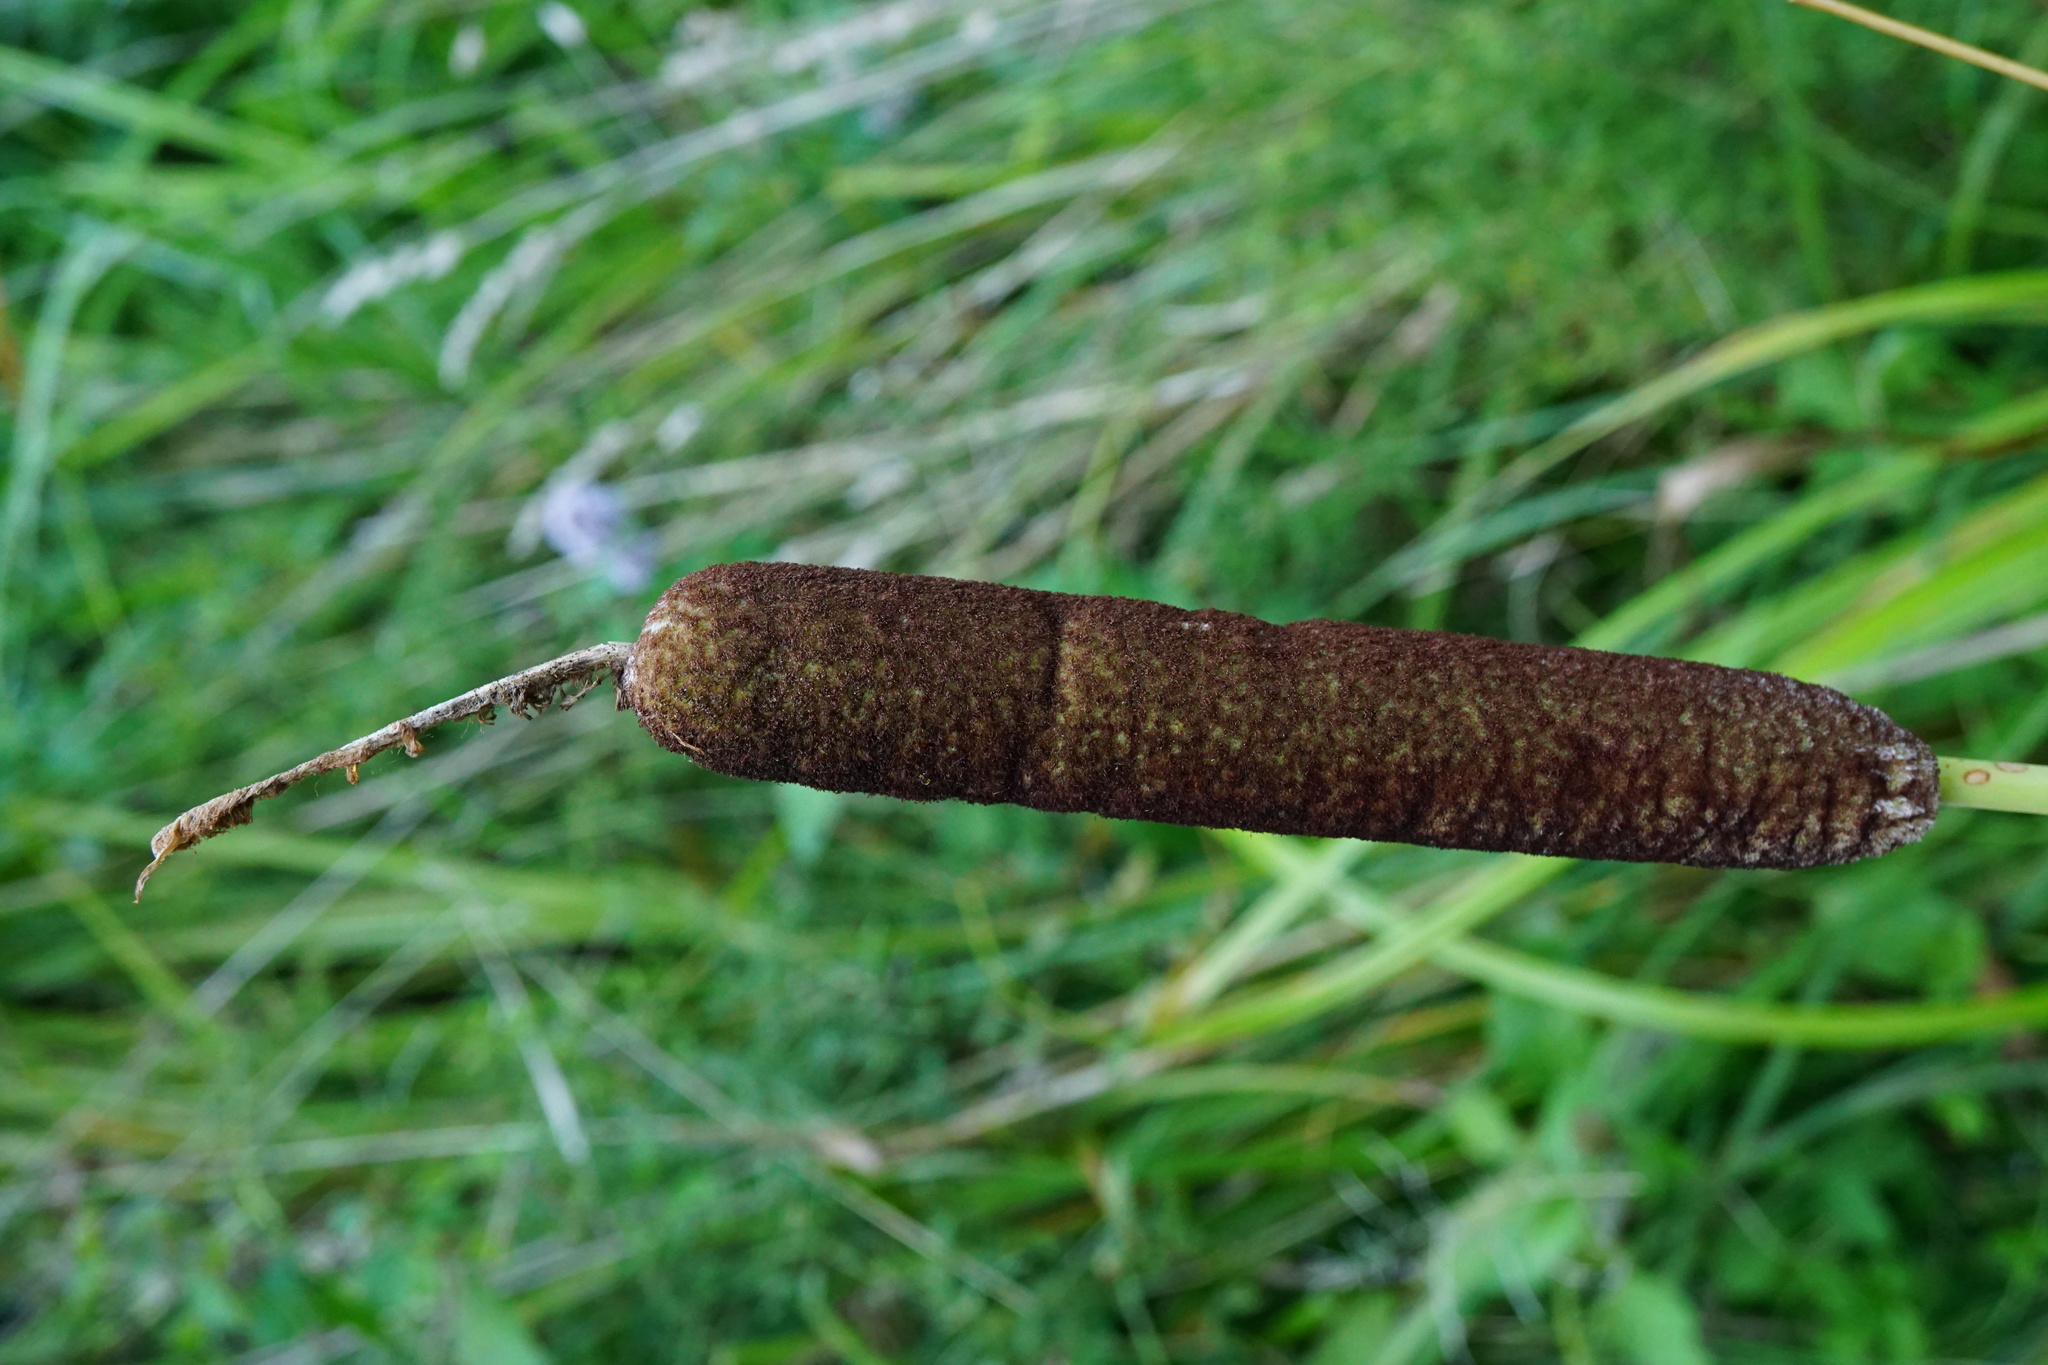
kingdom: Plantae
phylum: Tracheophyta
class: Liliopsida
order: Poales
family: Typhaceae
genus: Typha
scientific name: Typha shuttleworthii
